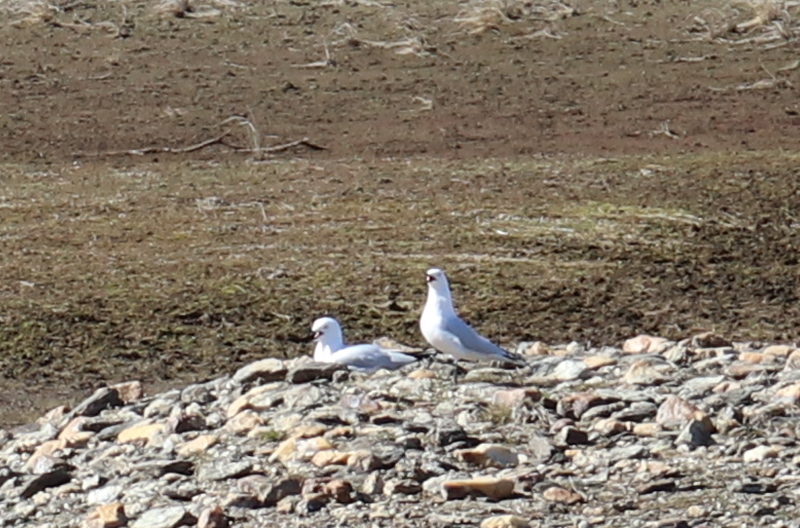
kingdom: Animalia
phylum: Chordata
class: Aves
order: Charadriiformes
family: Laridae
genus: Chroicocephalus
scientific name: Chroicocephalus bulleri
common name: Black-billed gull
